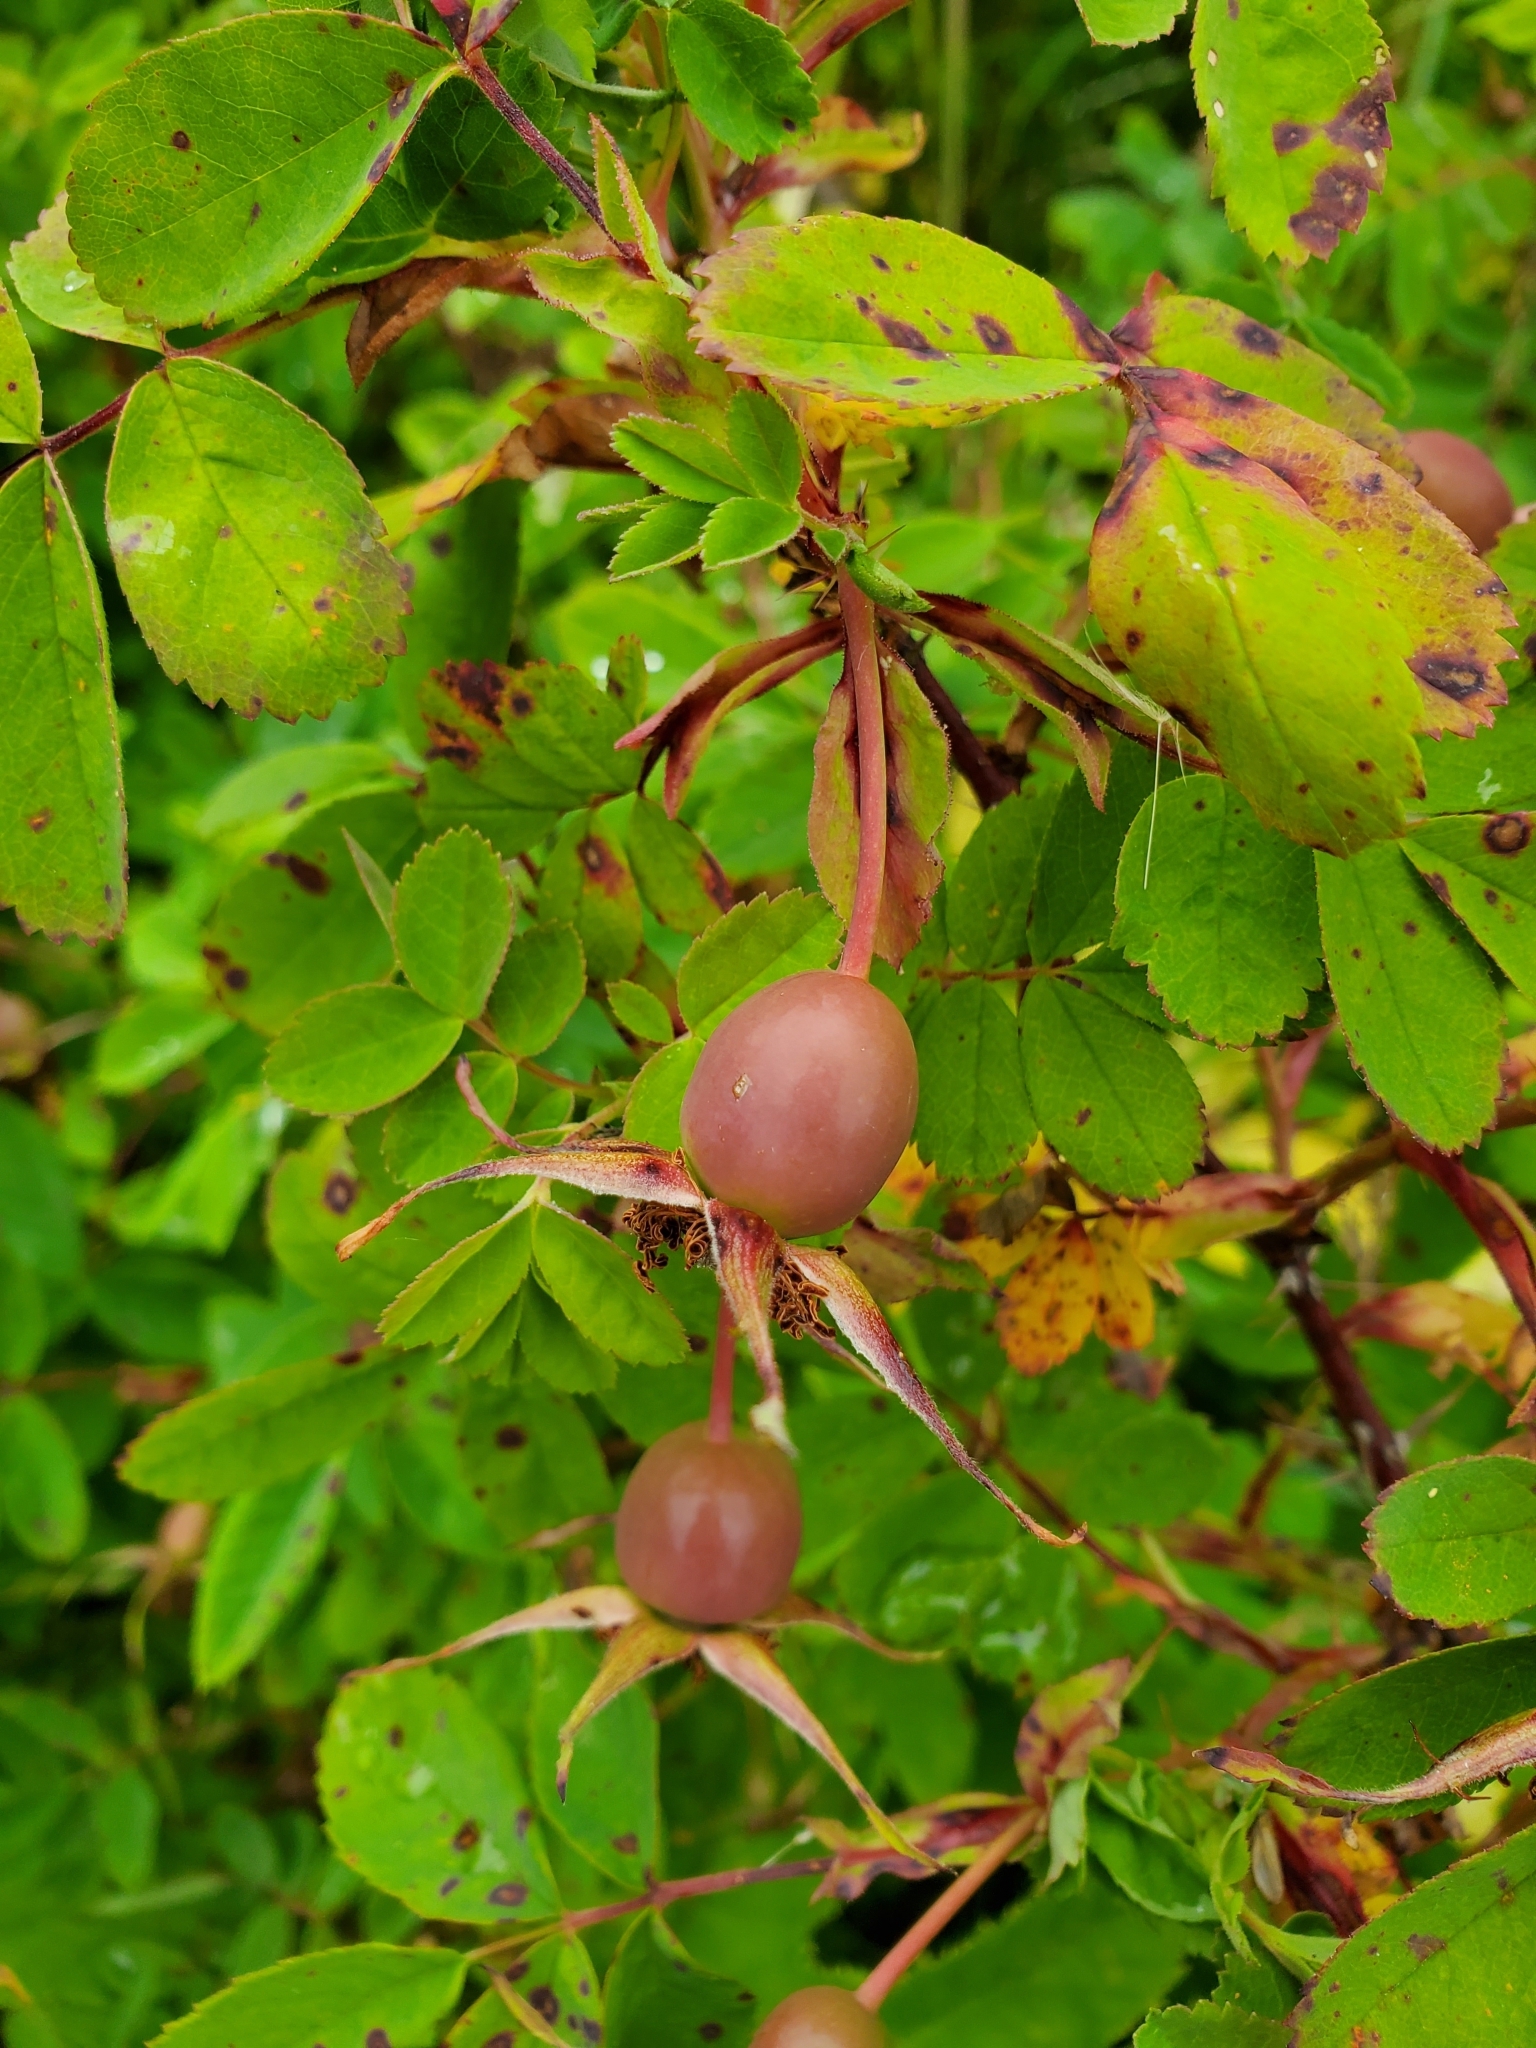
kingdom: Plantae
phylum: Tracheophyta
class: Magnoliopsida
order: Rosales
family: Rosaceae
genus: Rosa
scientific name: Rosa nutkana
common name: Nootka rose
